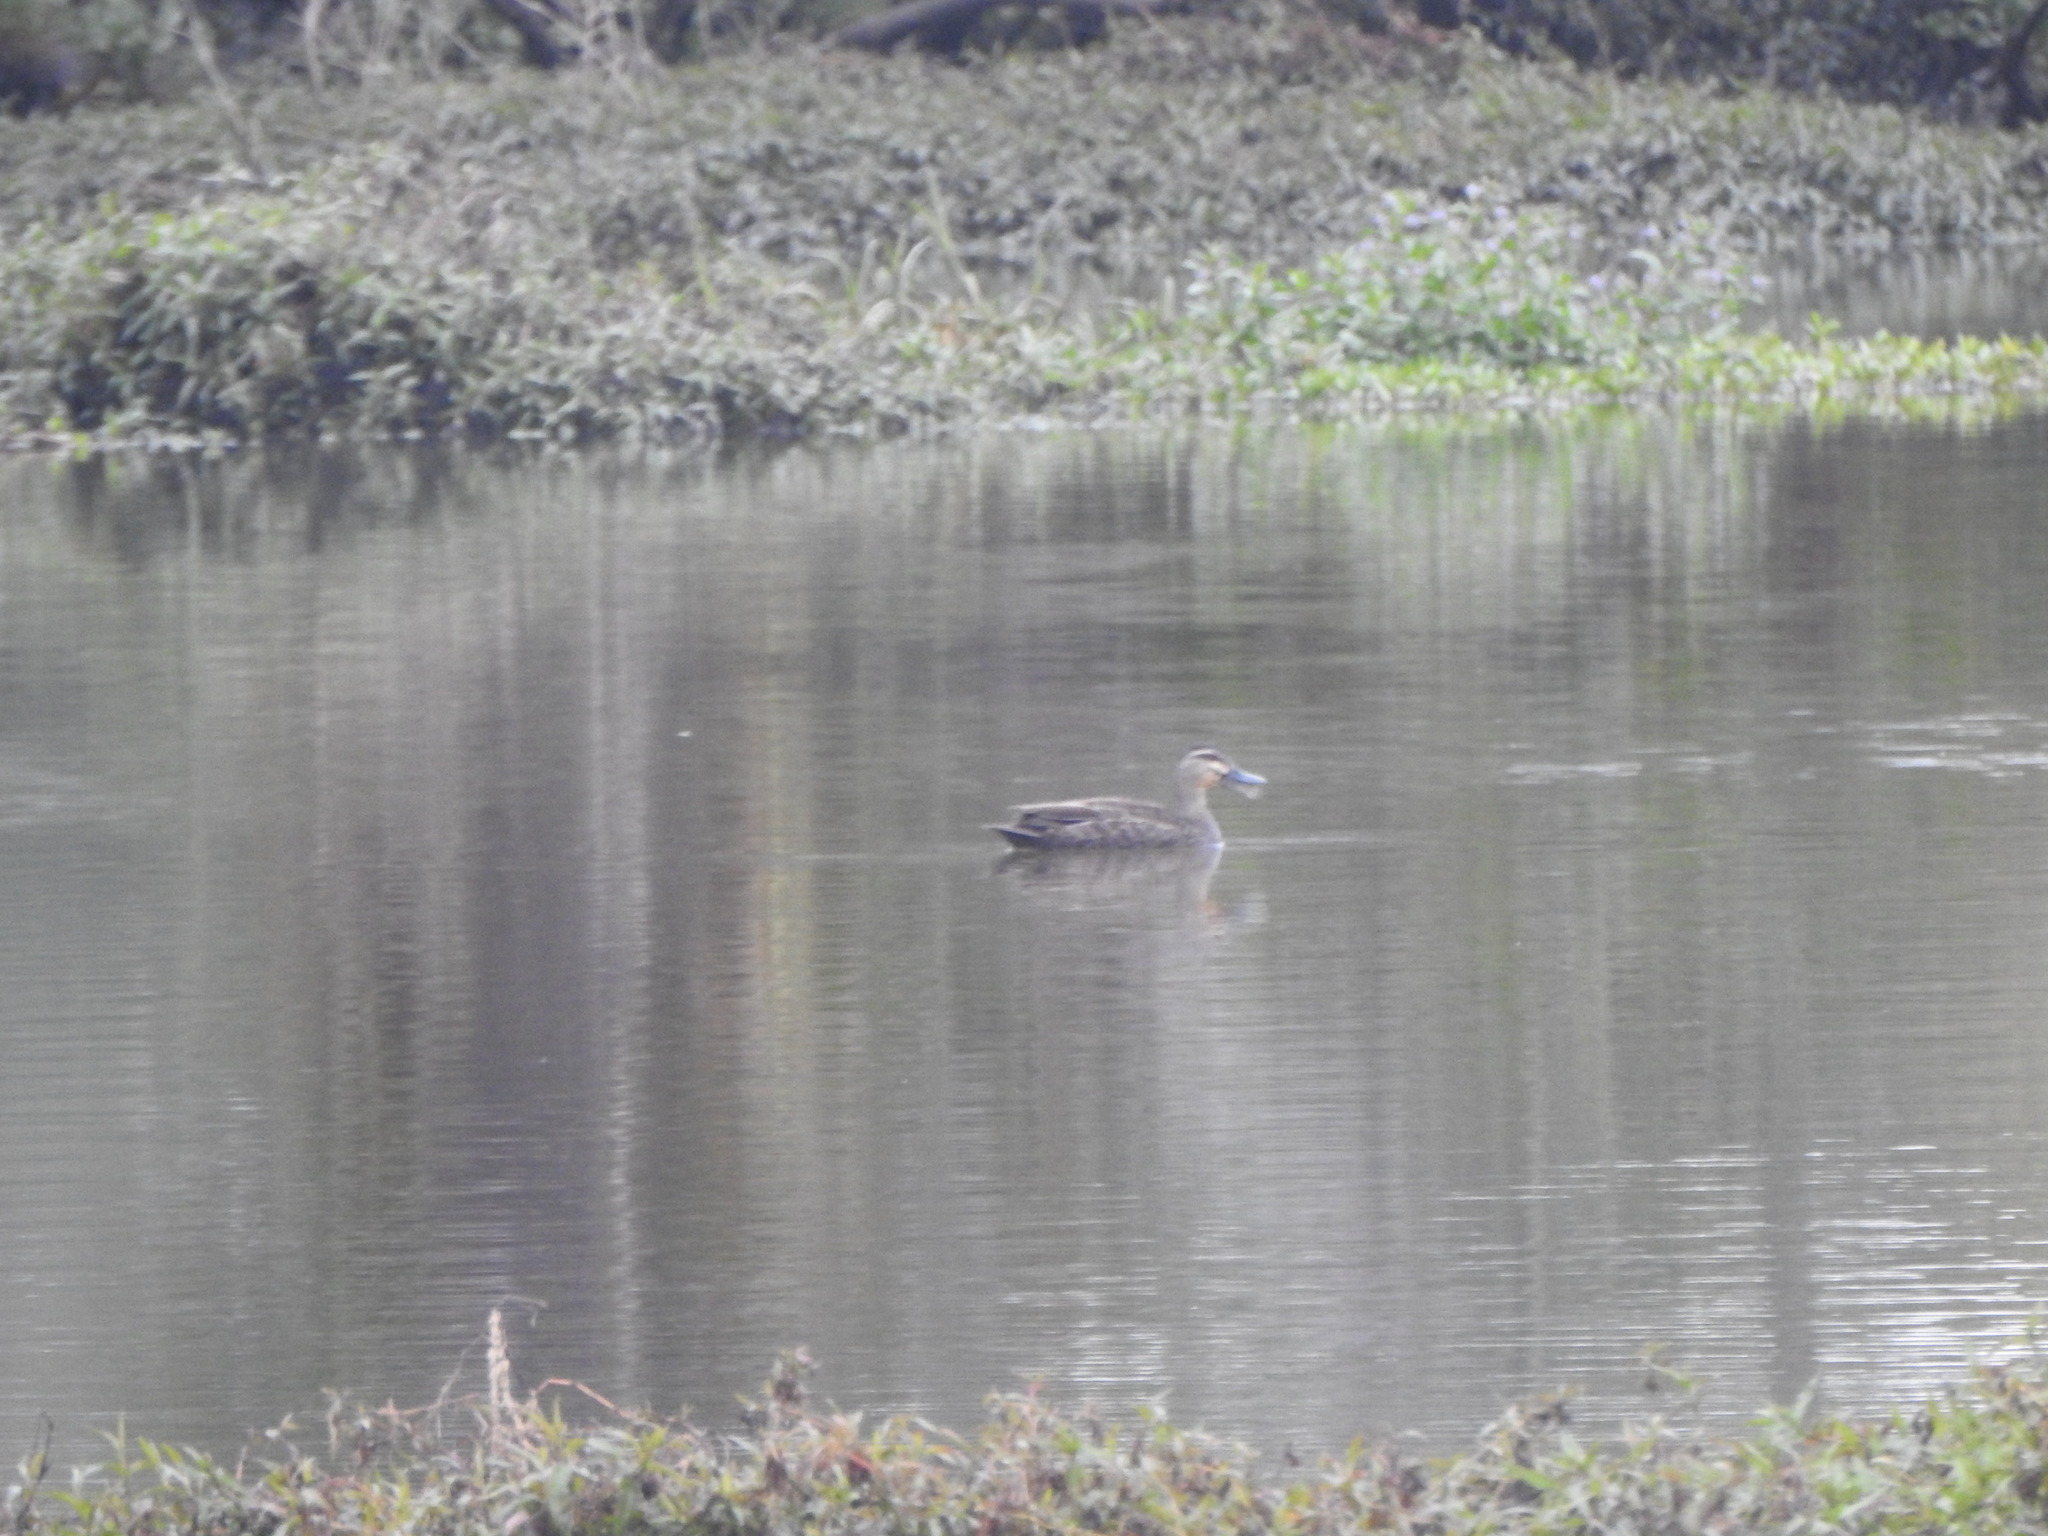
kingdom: Animalia
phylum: Chordata
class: Aves
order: Anseriformes
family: Anatidae
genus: Anas
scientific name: Anas
